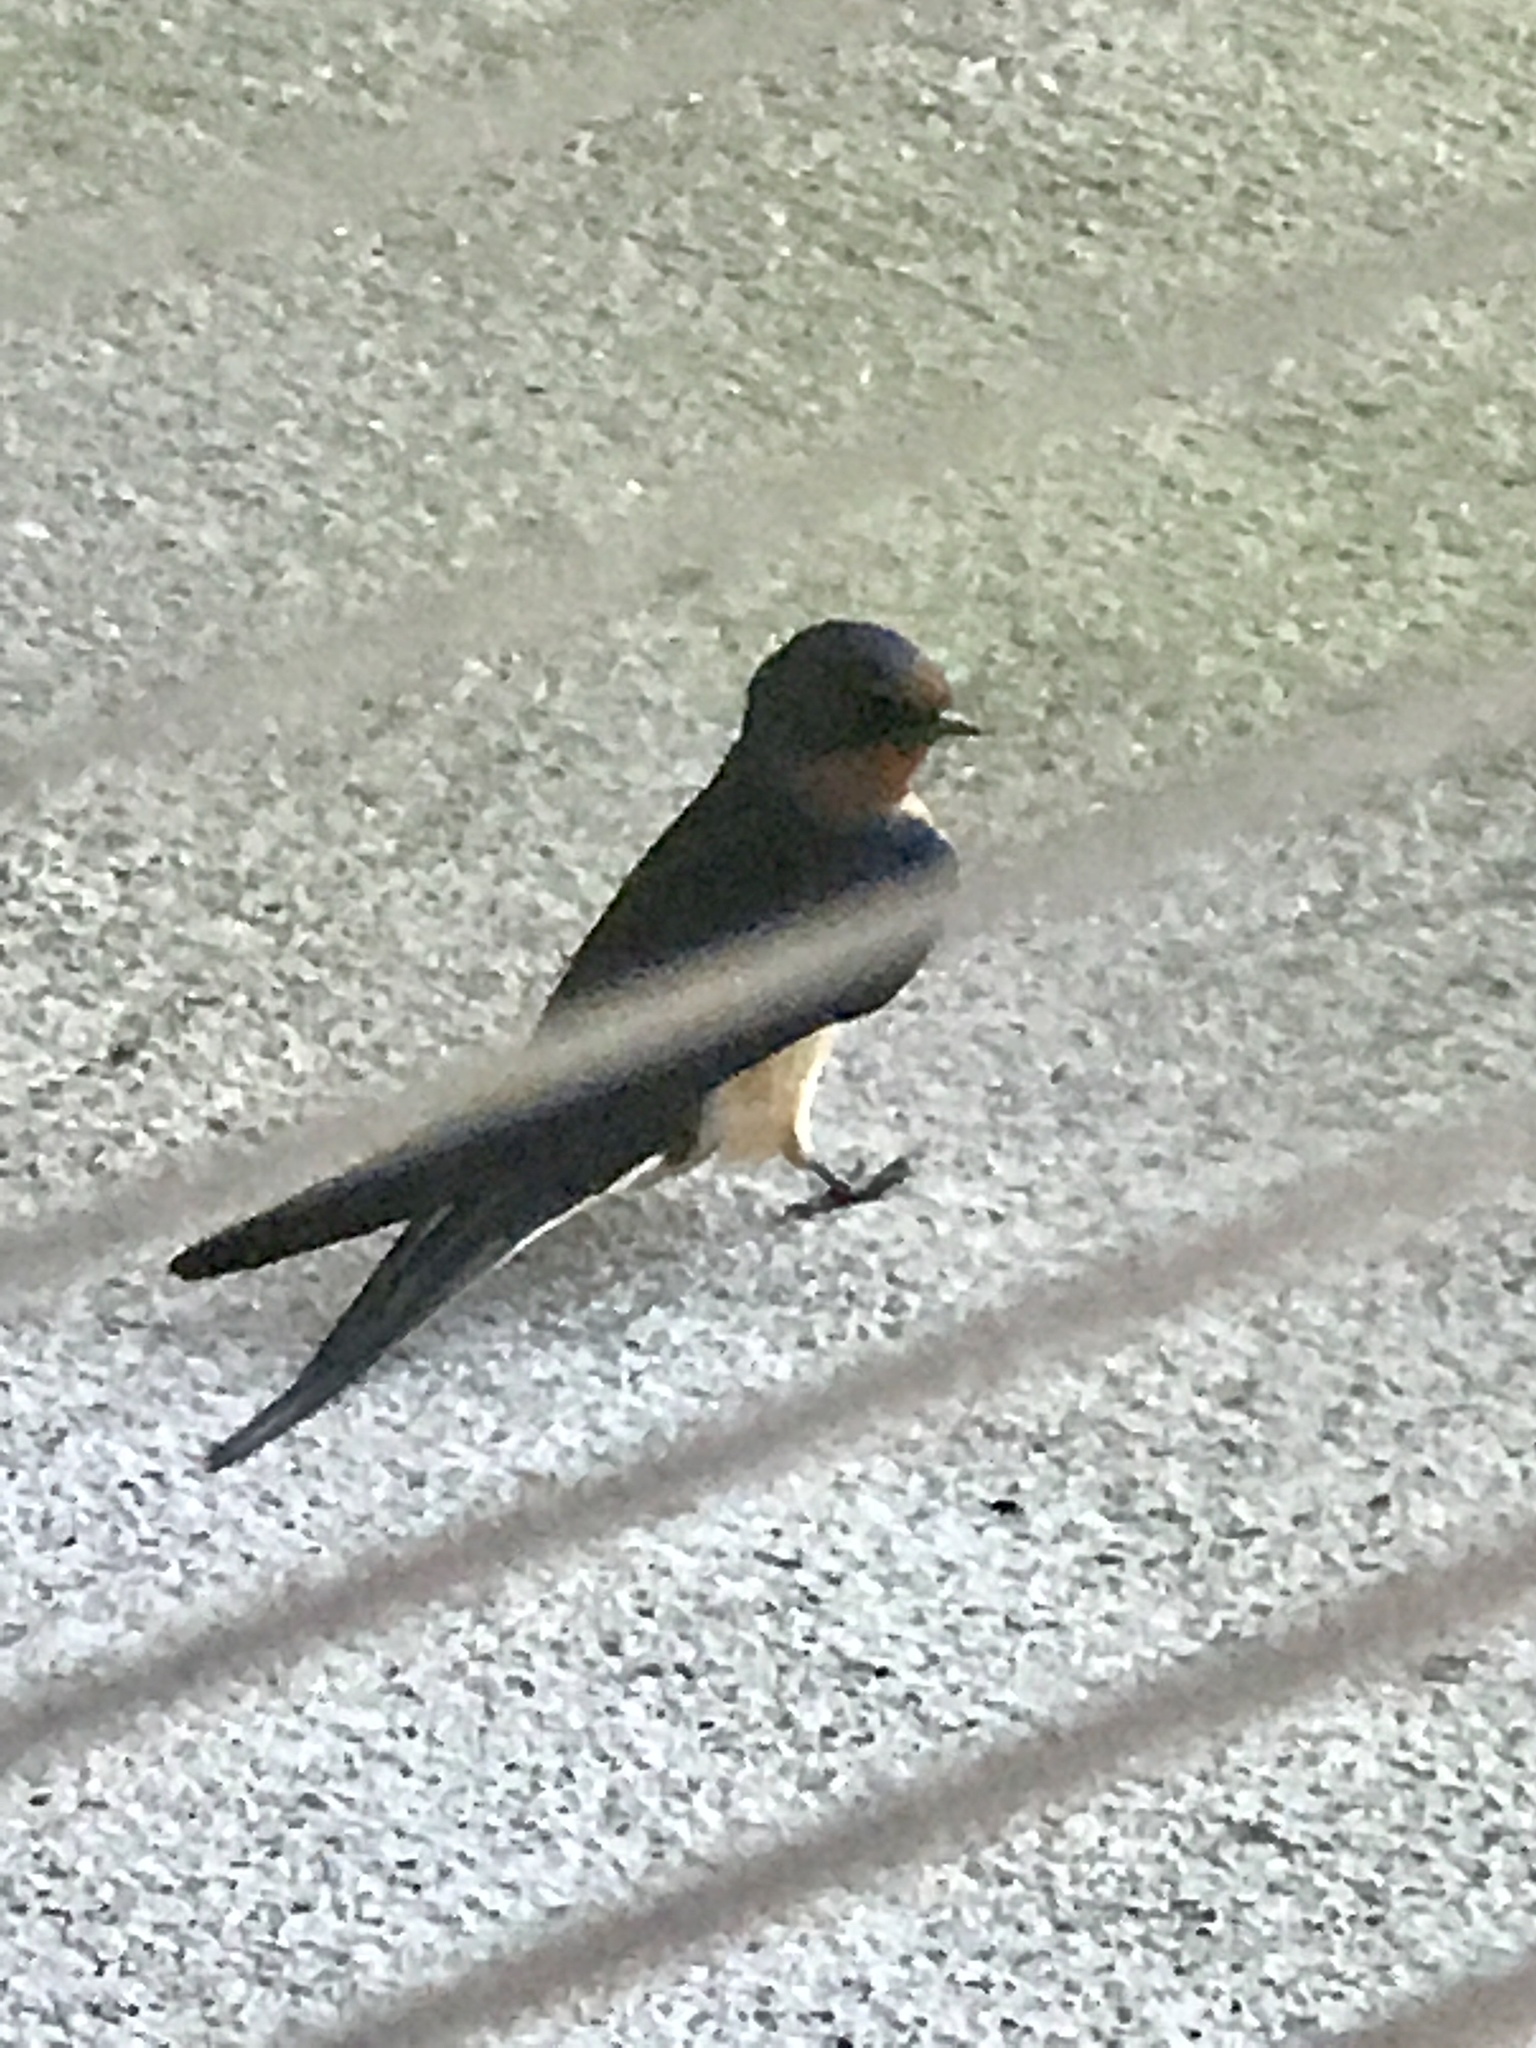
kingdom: Animalia
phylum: Chordata
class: Aves
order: Passeriformes
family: Hirundinidae
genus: Hirundo
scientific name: Hirundo rustica
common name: Barn swallow
